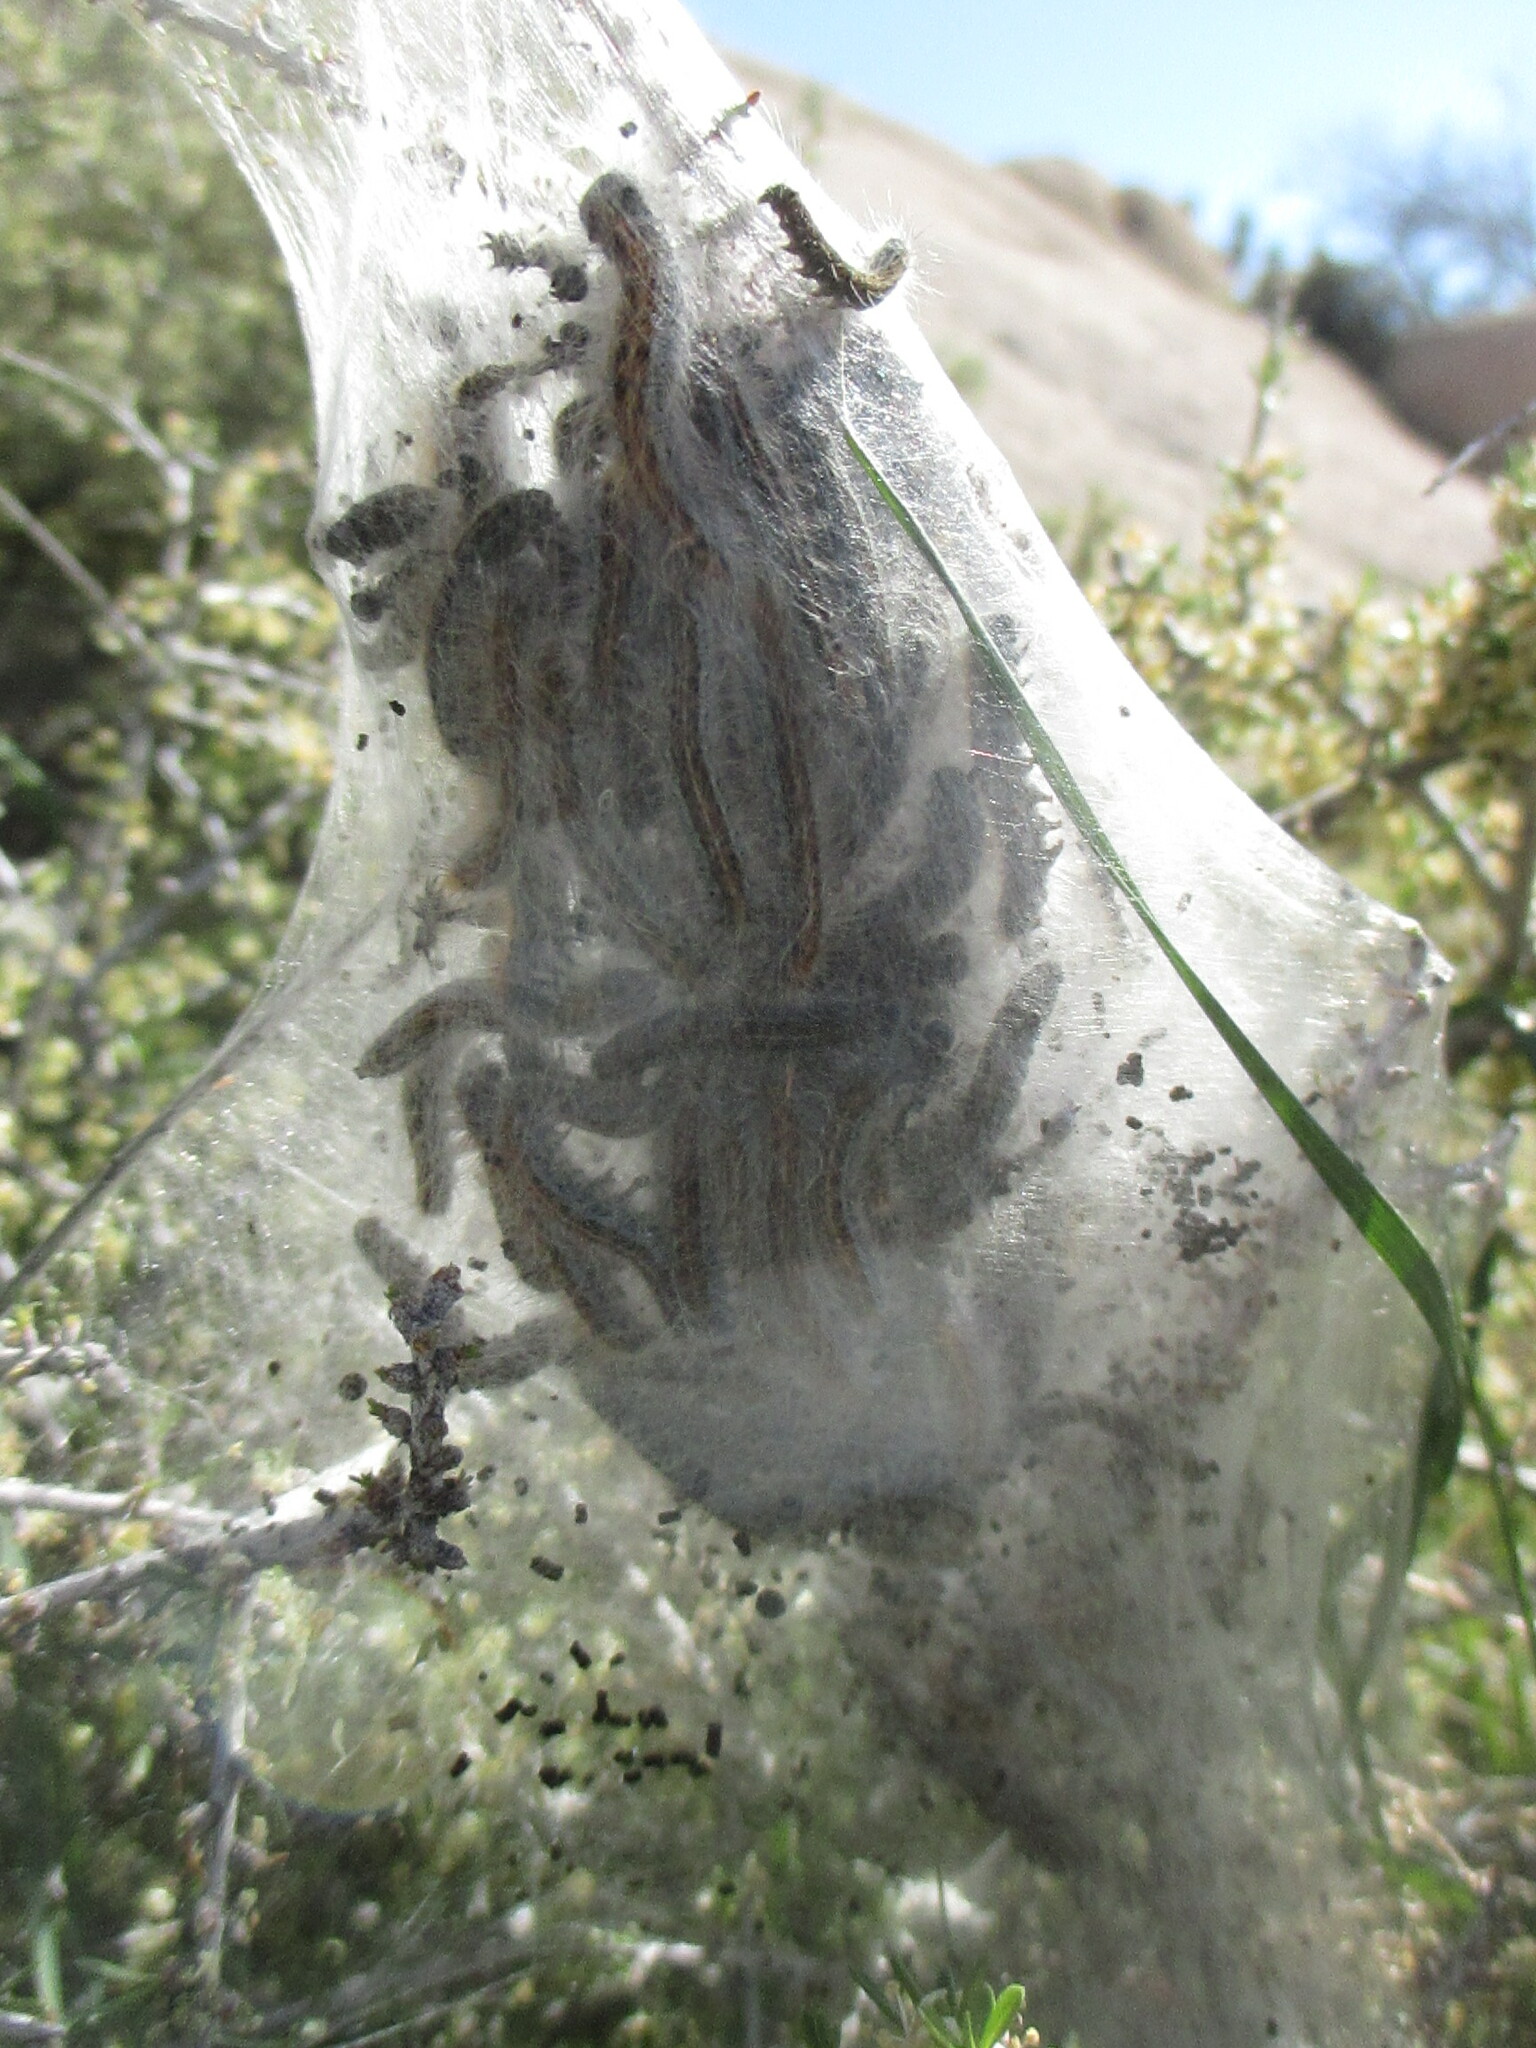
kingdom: Animalia
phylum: Arthropoda
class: Insecta
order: Lepidoptera
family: Lasiocampidae
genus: Malacosoma
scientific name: Malacosoma californica
